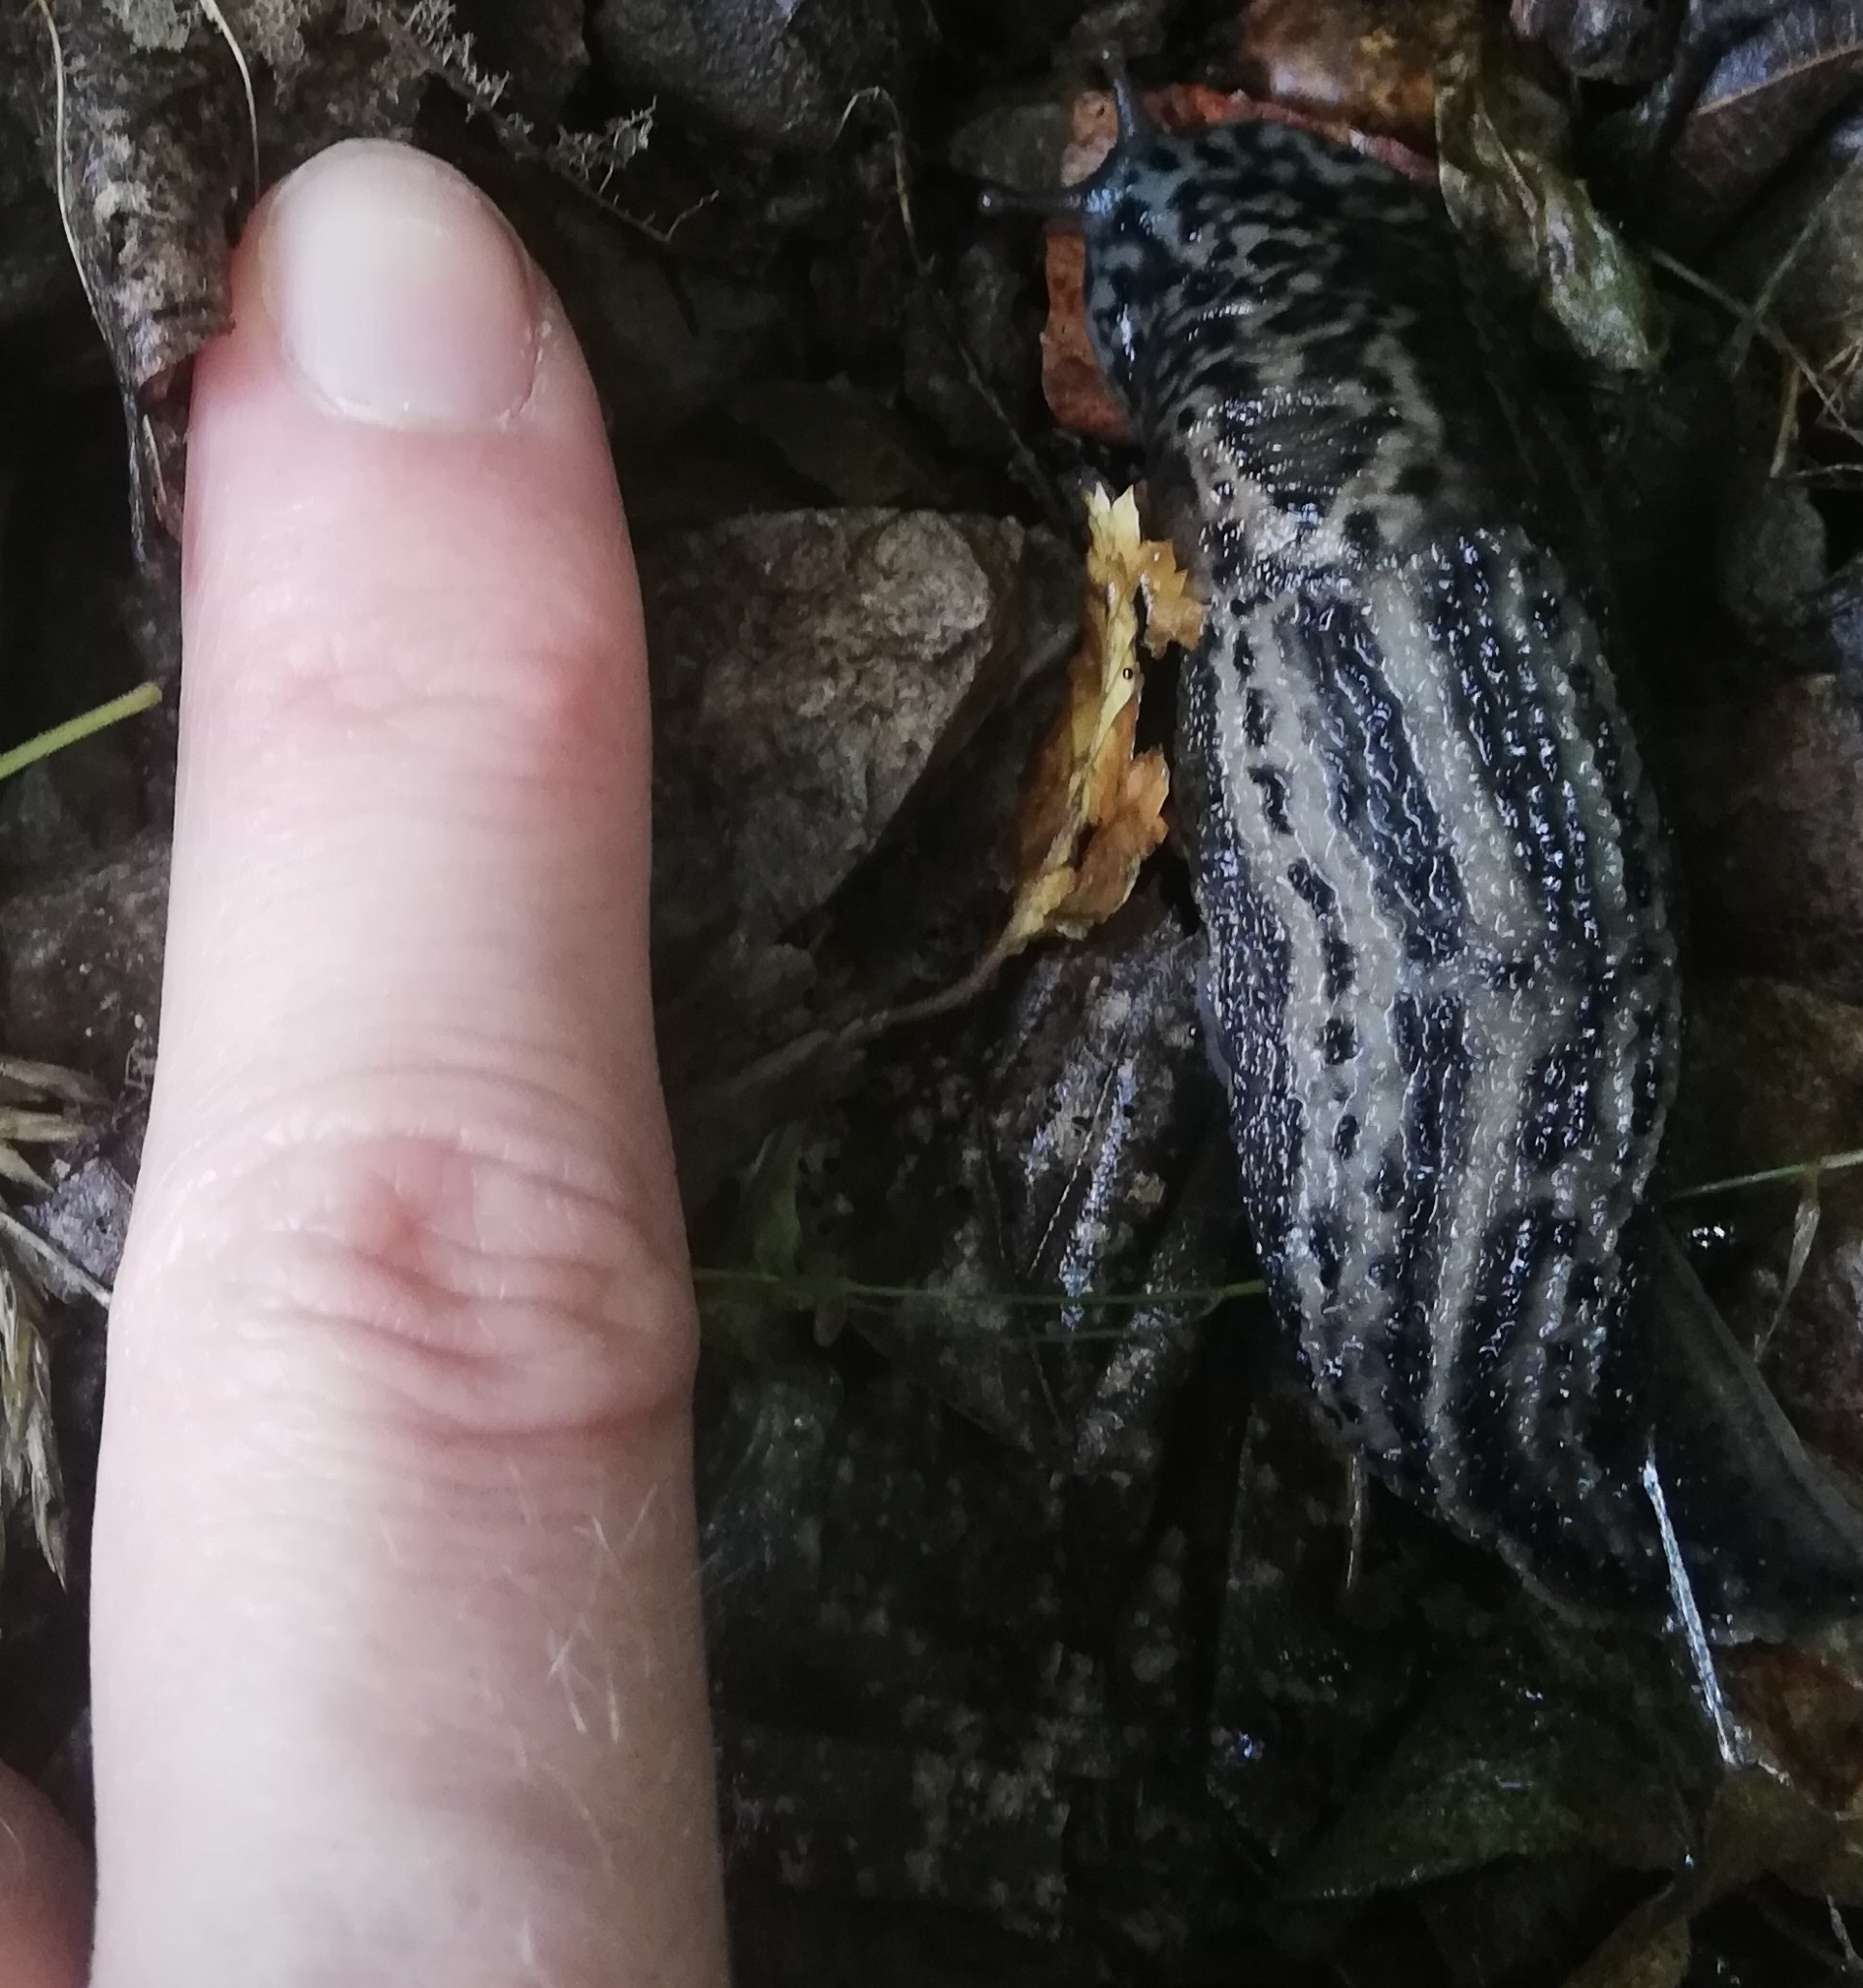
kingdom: Animalia
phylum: Mollusca
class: Gastropoda
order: Stylommatophora
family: Limacidae
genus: Limax
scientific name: Limax maximus
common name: Great grey slug
